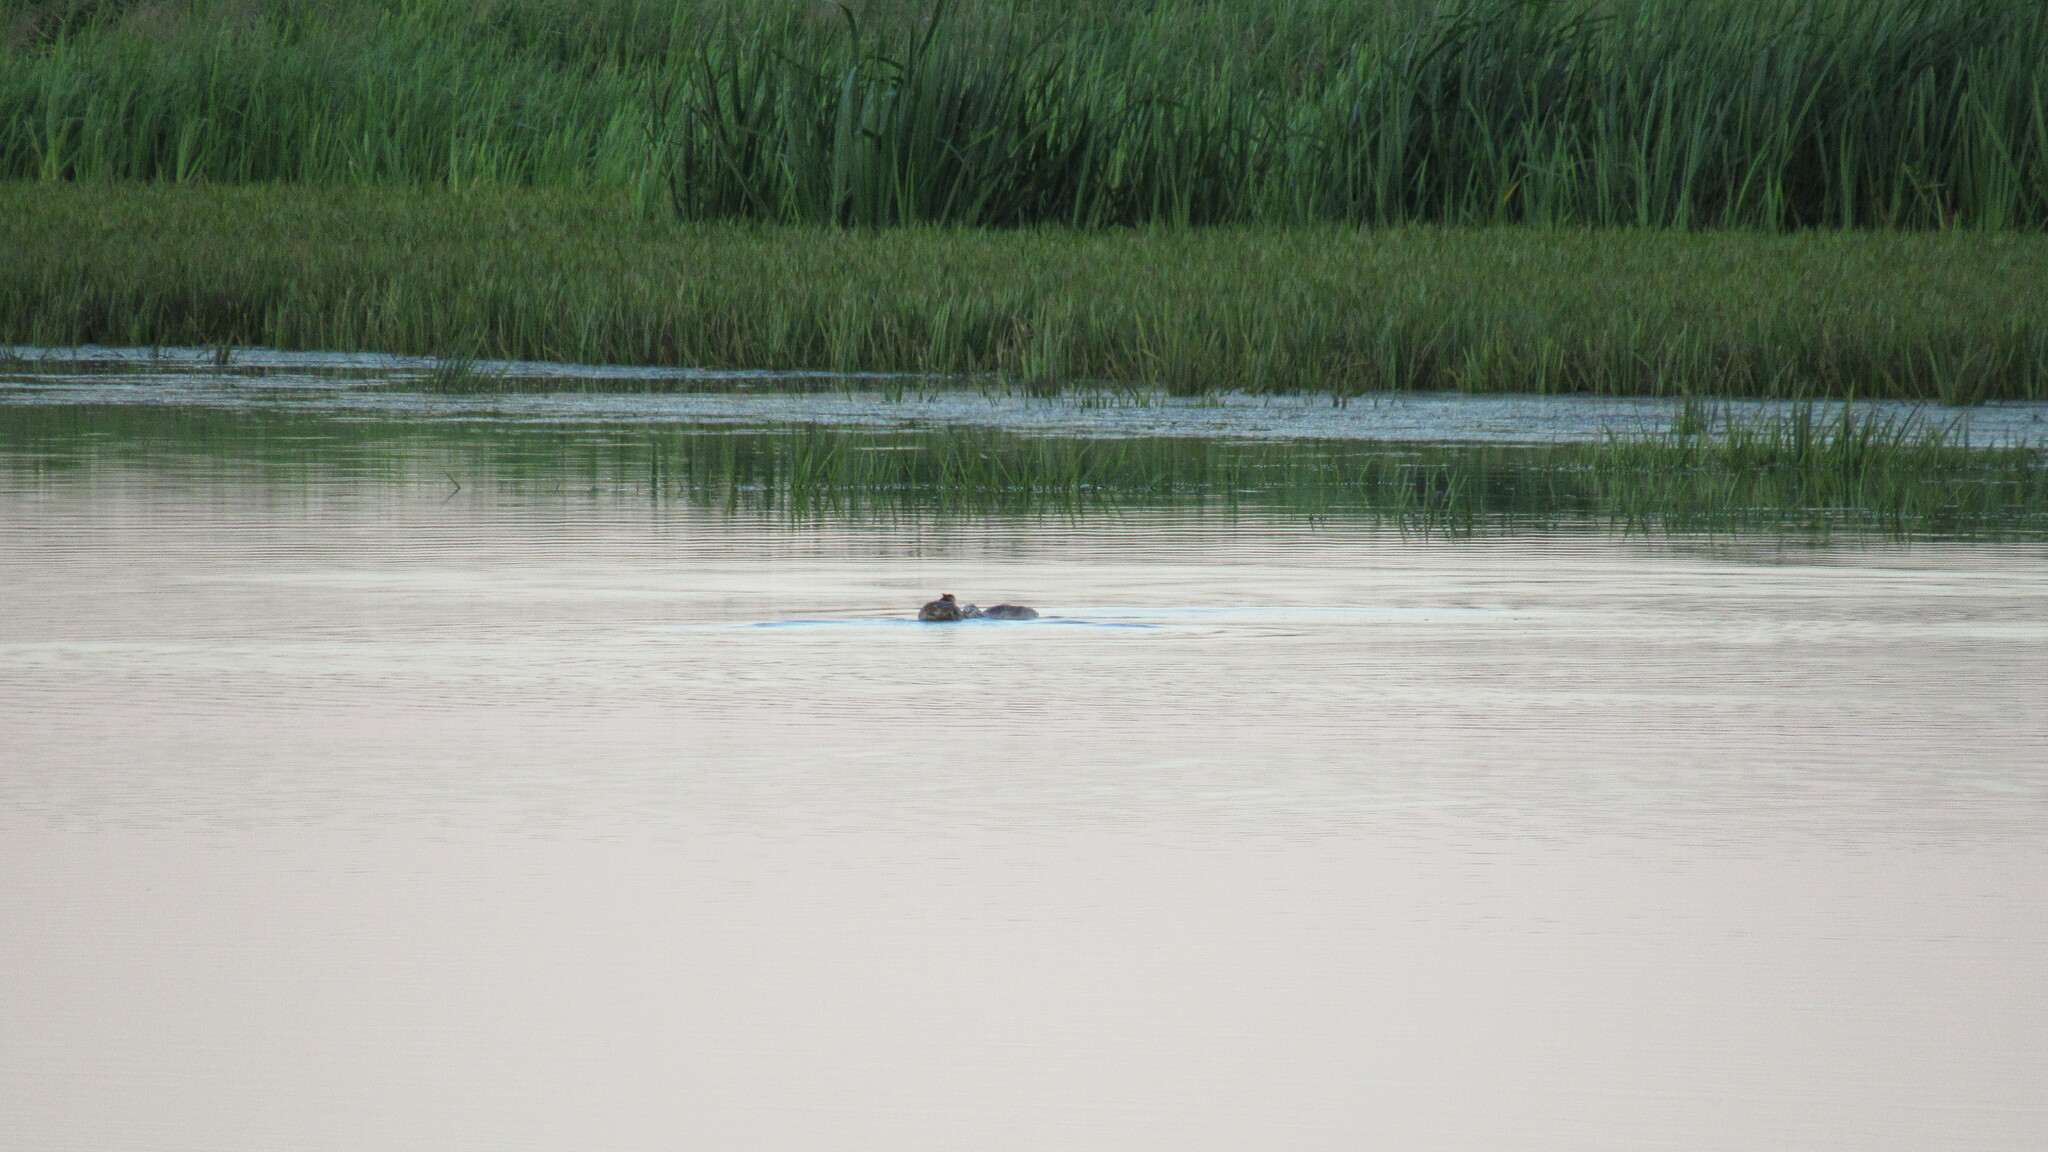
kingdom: Animalia
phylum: Chordata
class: Aves
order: Podicipediformes
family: Podicipedidae
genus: Podiceps
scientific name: Podiceps cristatus
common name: Great crested grebe
